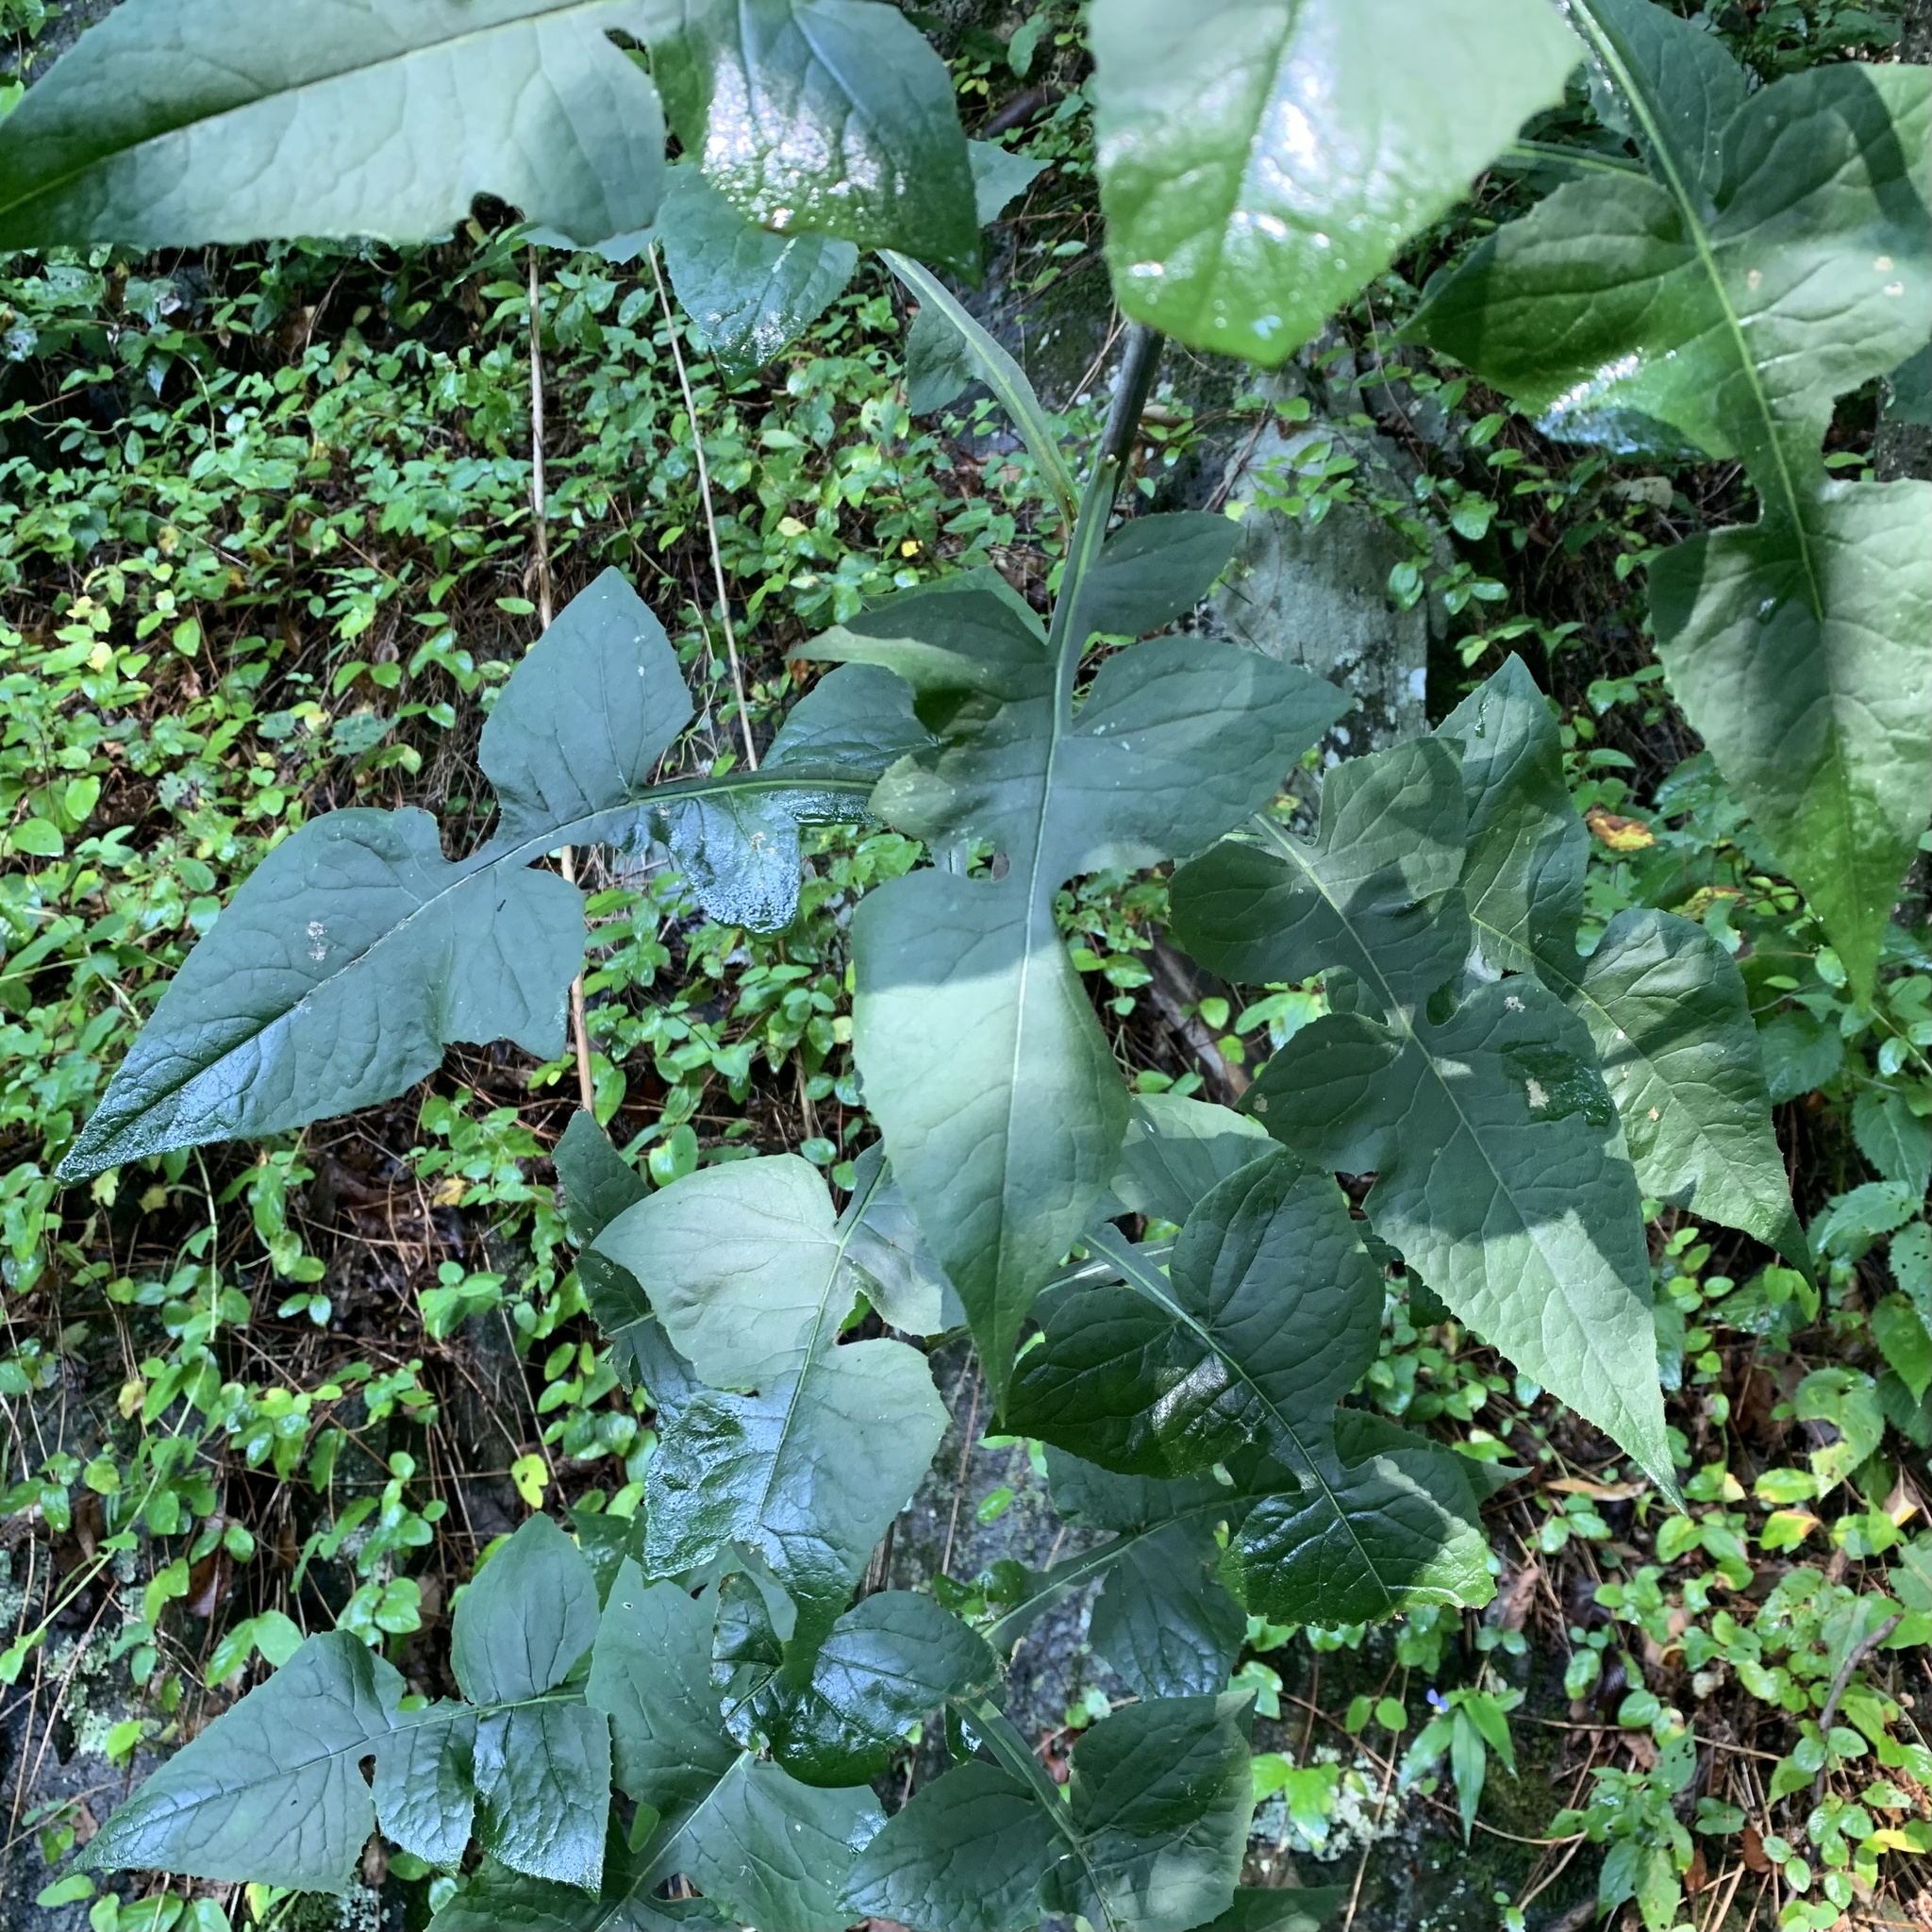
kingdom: Plantae
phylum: Tracheophyta
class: Magnoliopsida
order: Asterales
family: Asteraceae
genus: Lactuca
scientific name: Lactuca floridana
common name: Woodland lettuce
